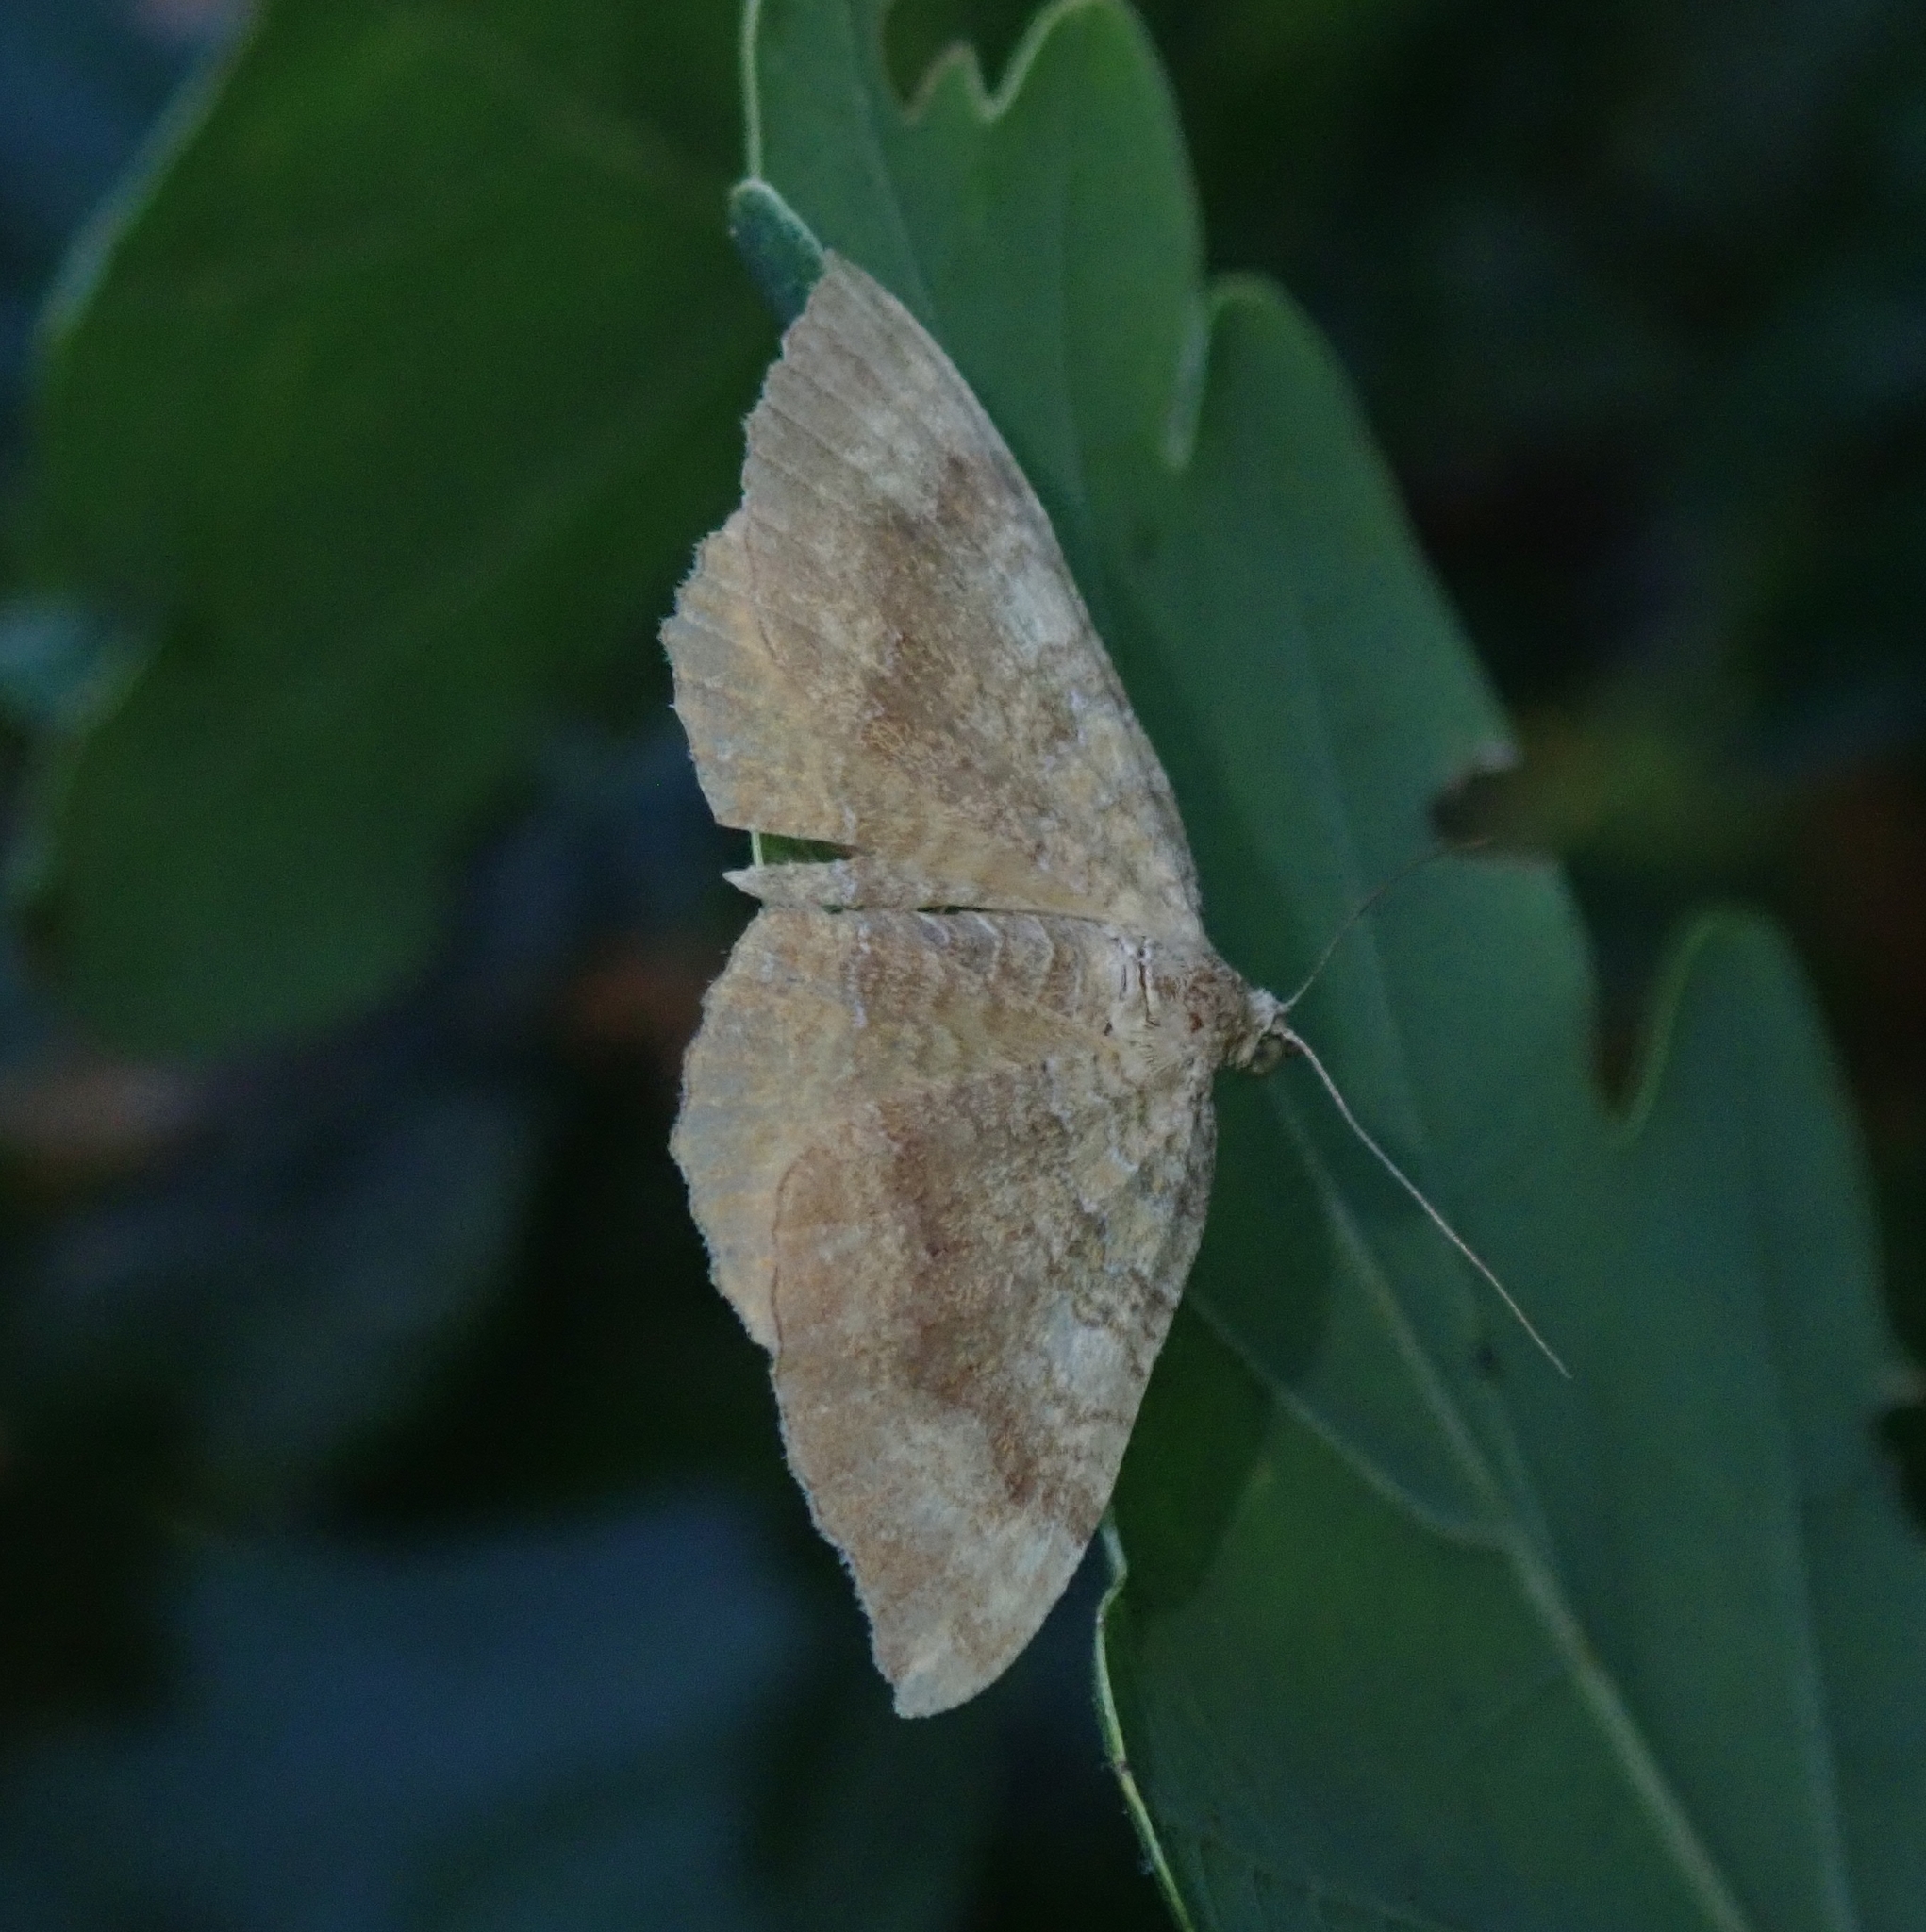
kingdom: Animalia
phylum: Arthropoda
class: Insecta
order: Lepidoptera
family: Geometridae
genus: Camptogramma
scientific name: Camptogramma bilineata
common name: Yellow shell
